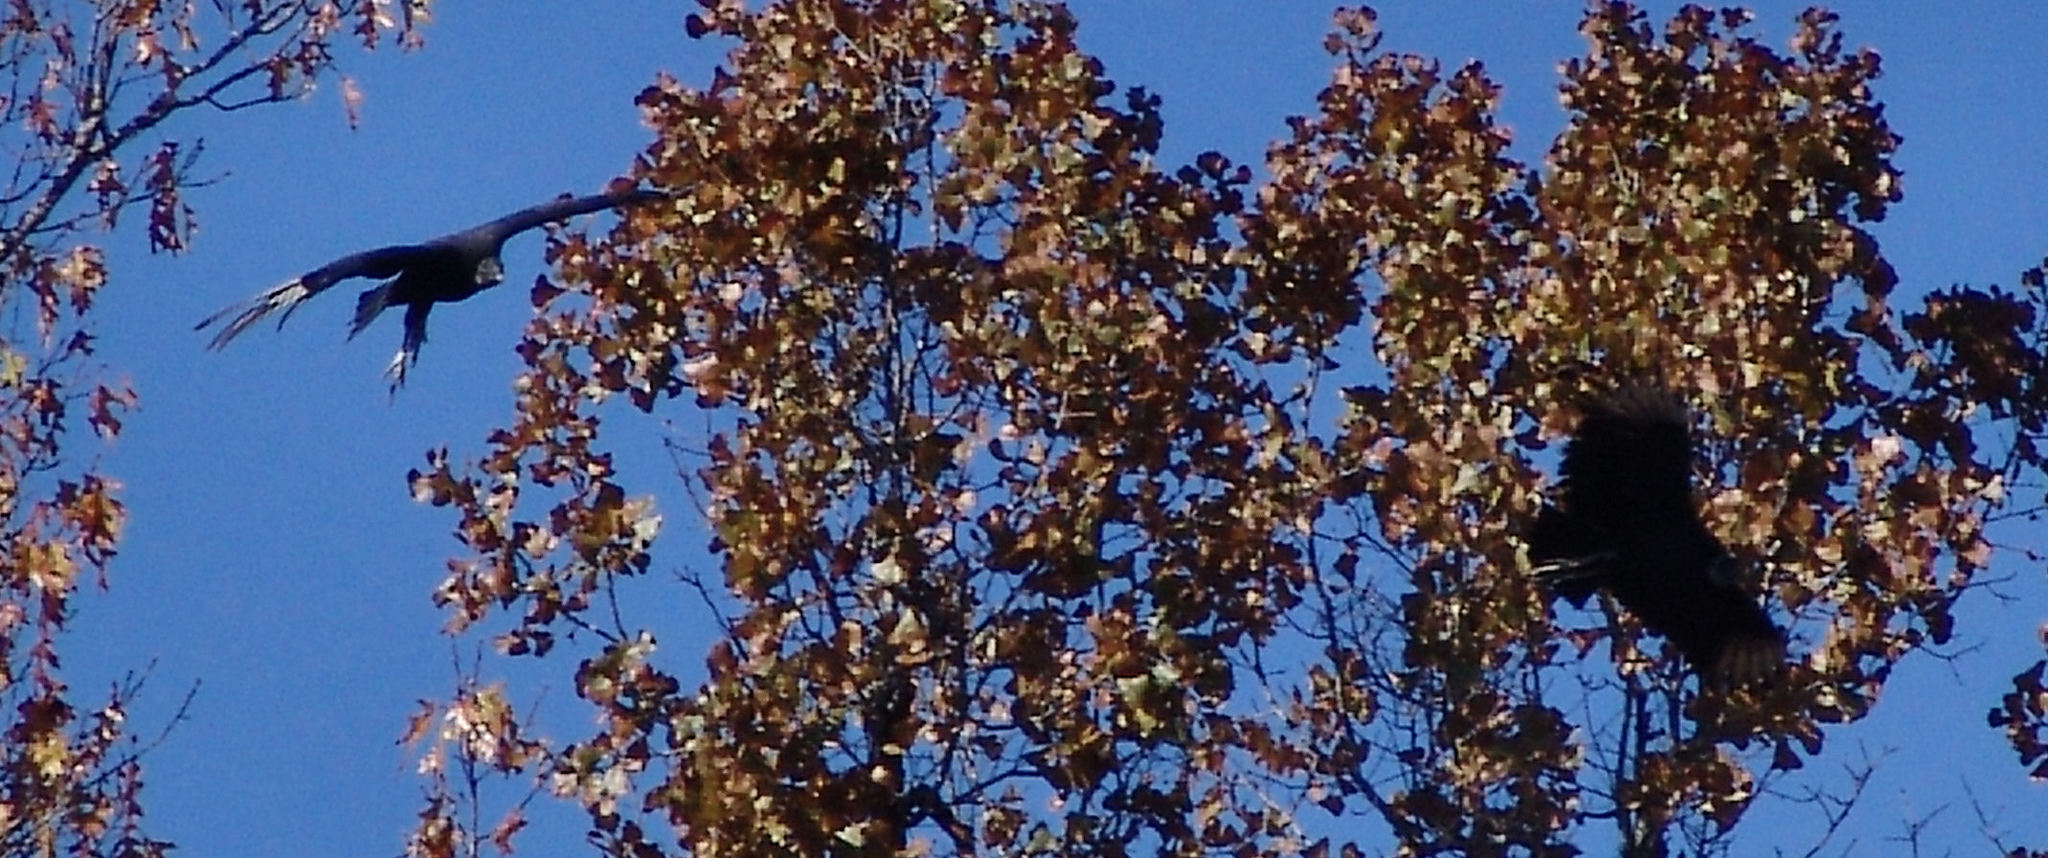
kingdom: Animalia
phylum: Chordata
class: Aves
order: Accipitriformes
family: Cathartidae
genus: Coragyps
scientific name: Coragyps atratus
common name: Black vulture
